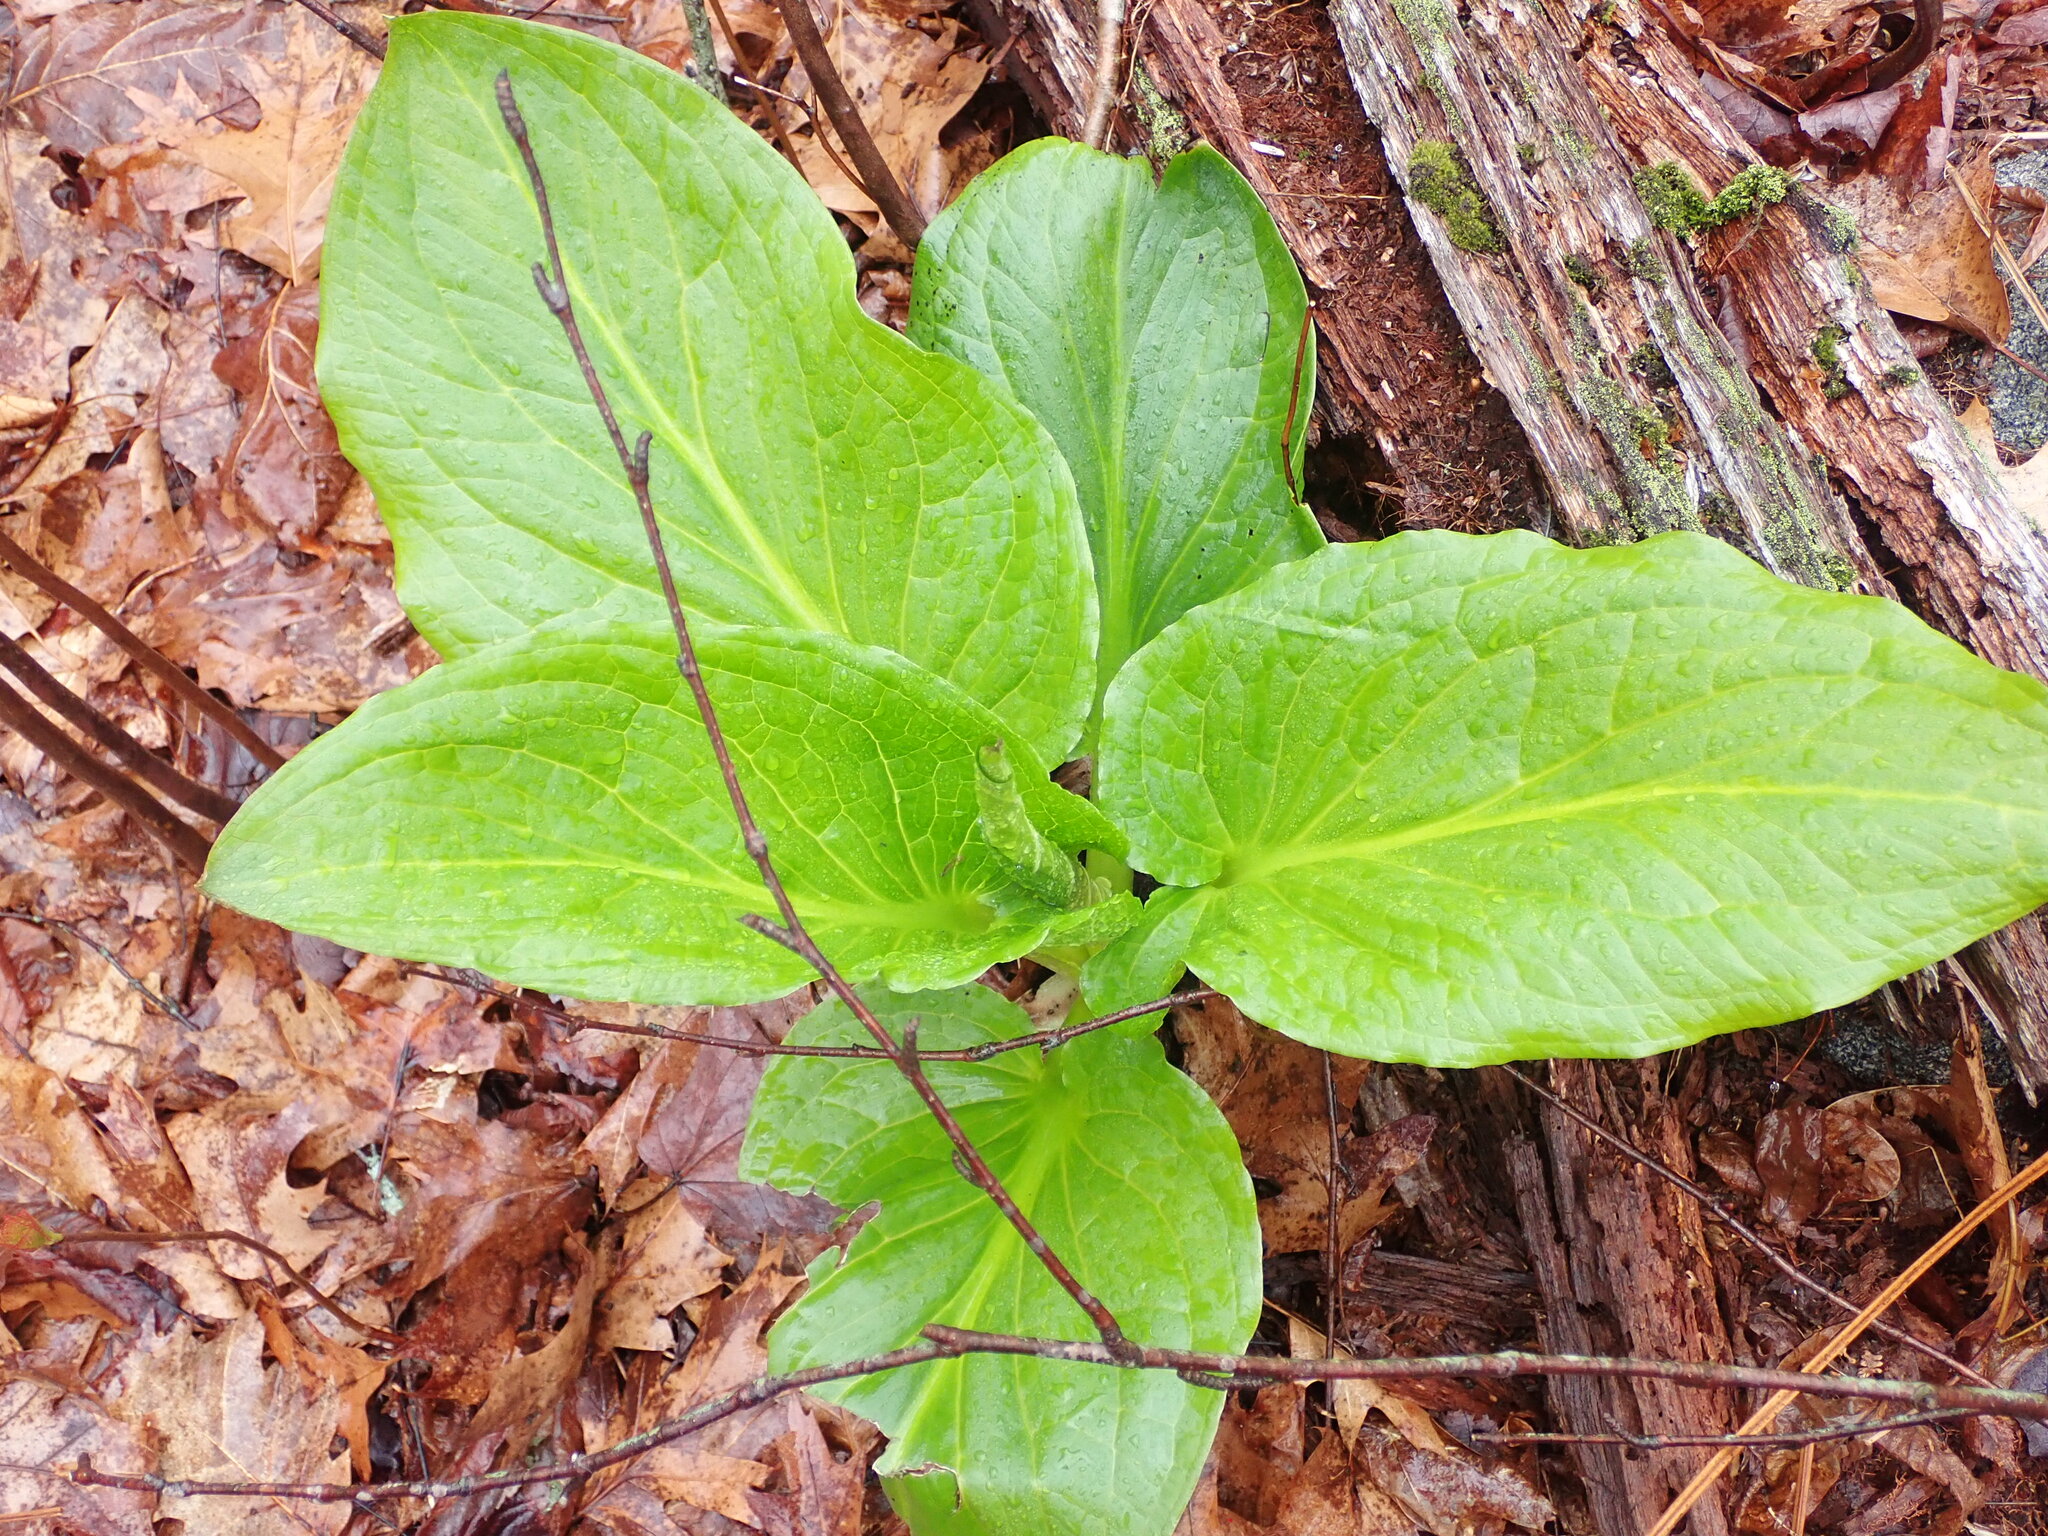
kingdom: Plantae
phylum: Tracheophyta
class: Liliopsida
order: Alismatales
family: Araceae
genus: Symplocarpus
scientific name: Symplocarpus foetidus
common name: Eastern skunk cabbage
